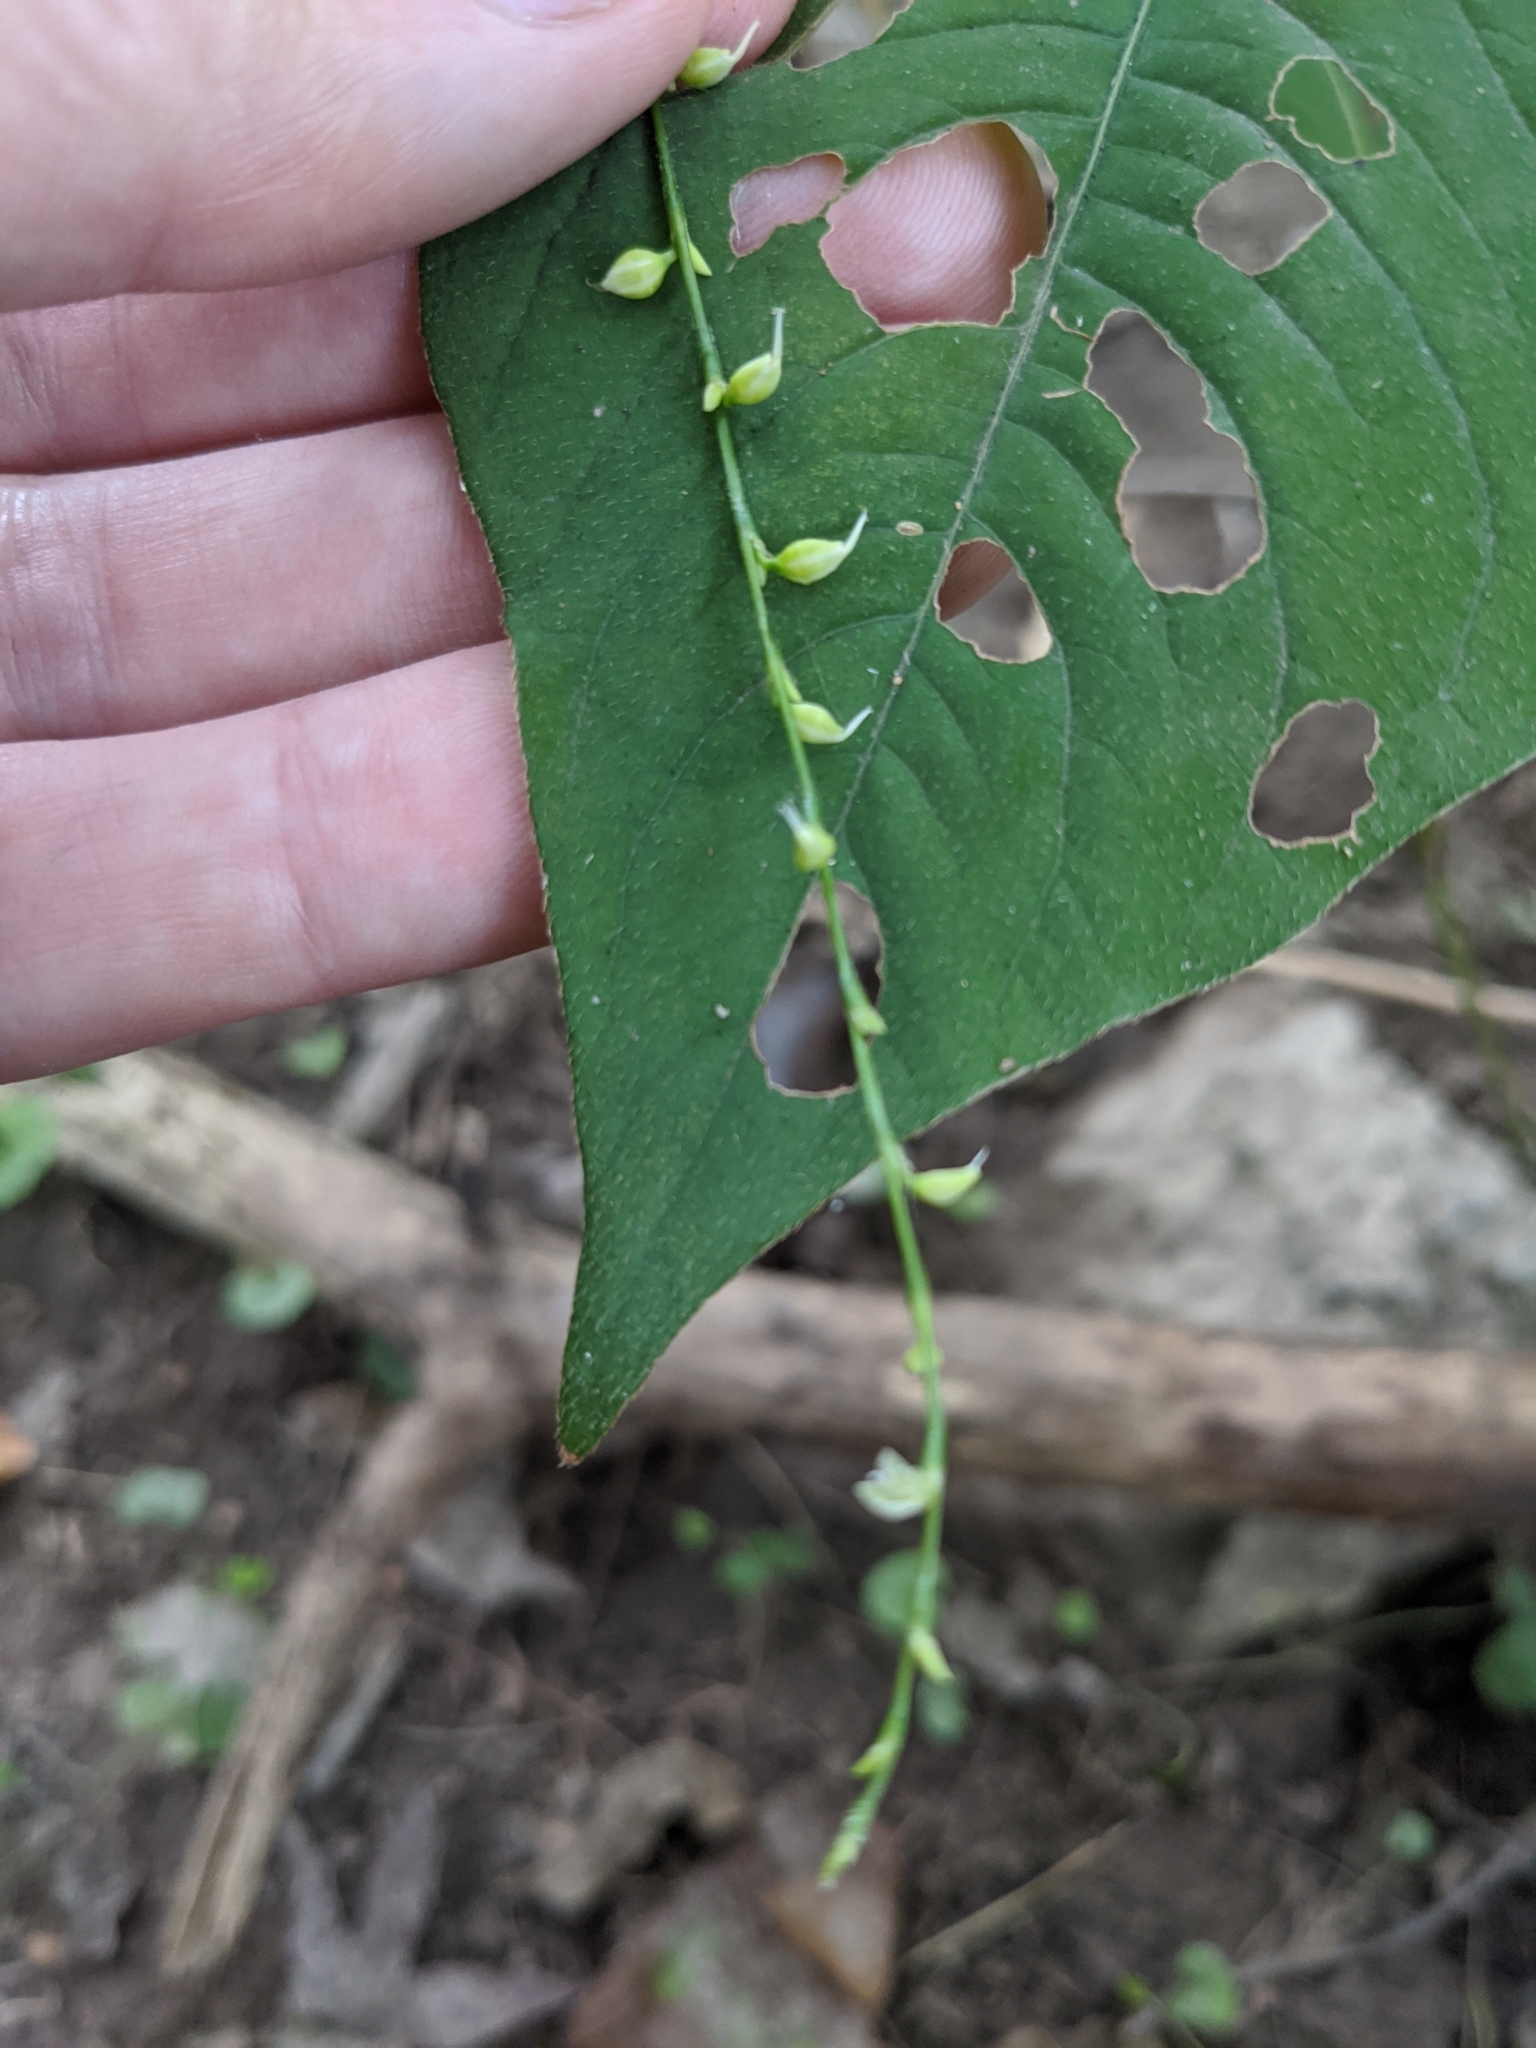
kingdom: Plantae
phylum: Tracheophyta
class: Magnoliopsida
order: Caryophyllales
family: Polygonaceae
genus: Persicaria
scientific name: Persicaria virginiana
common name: Jumpseed
